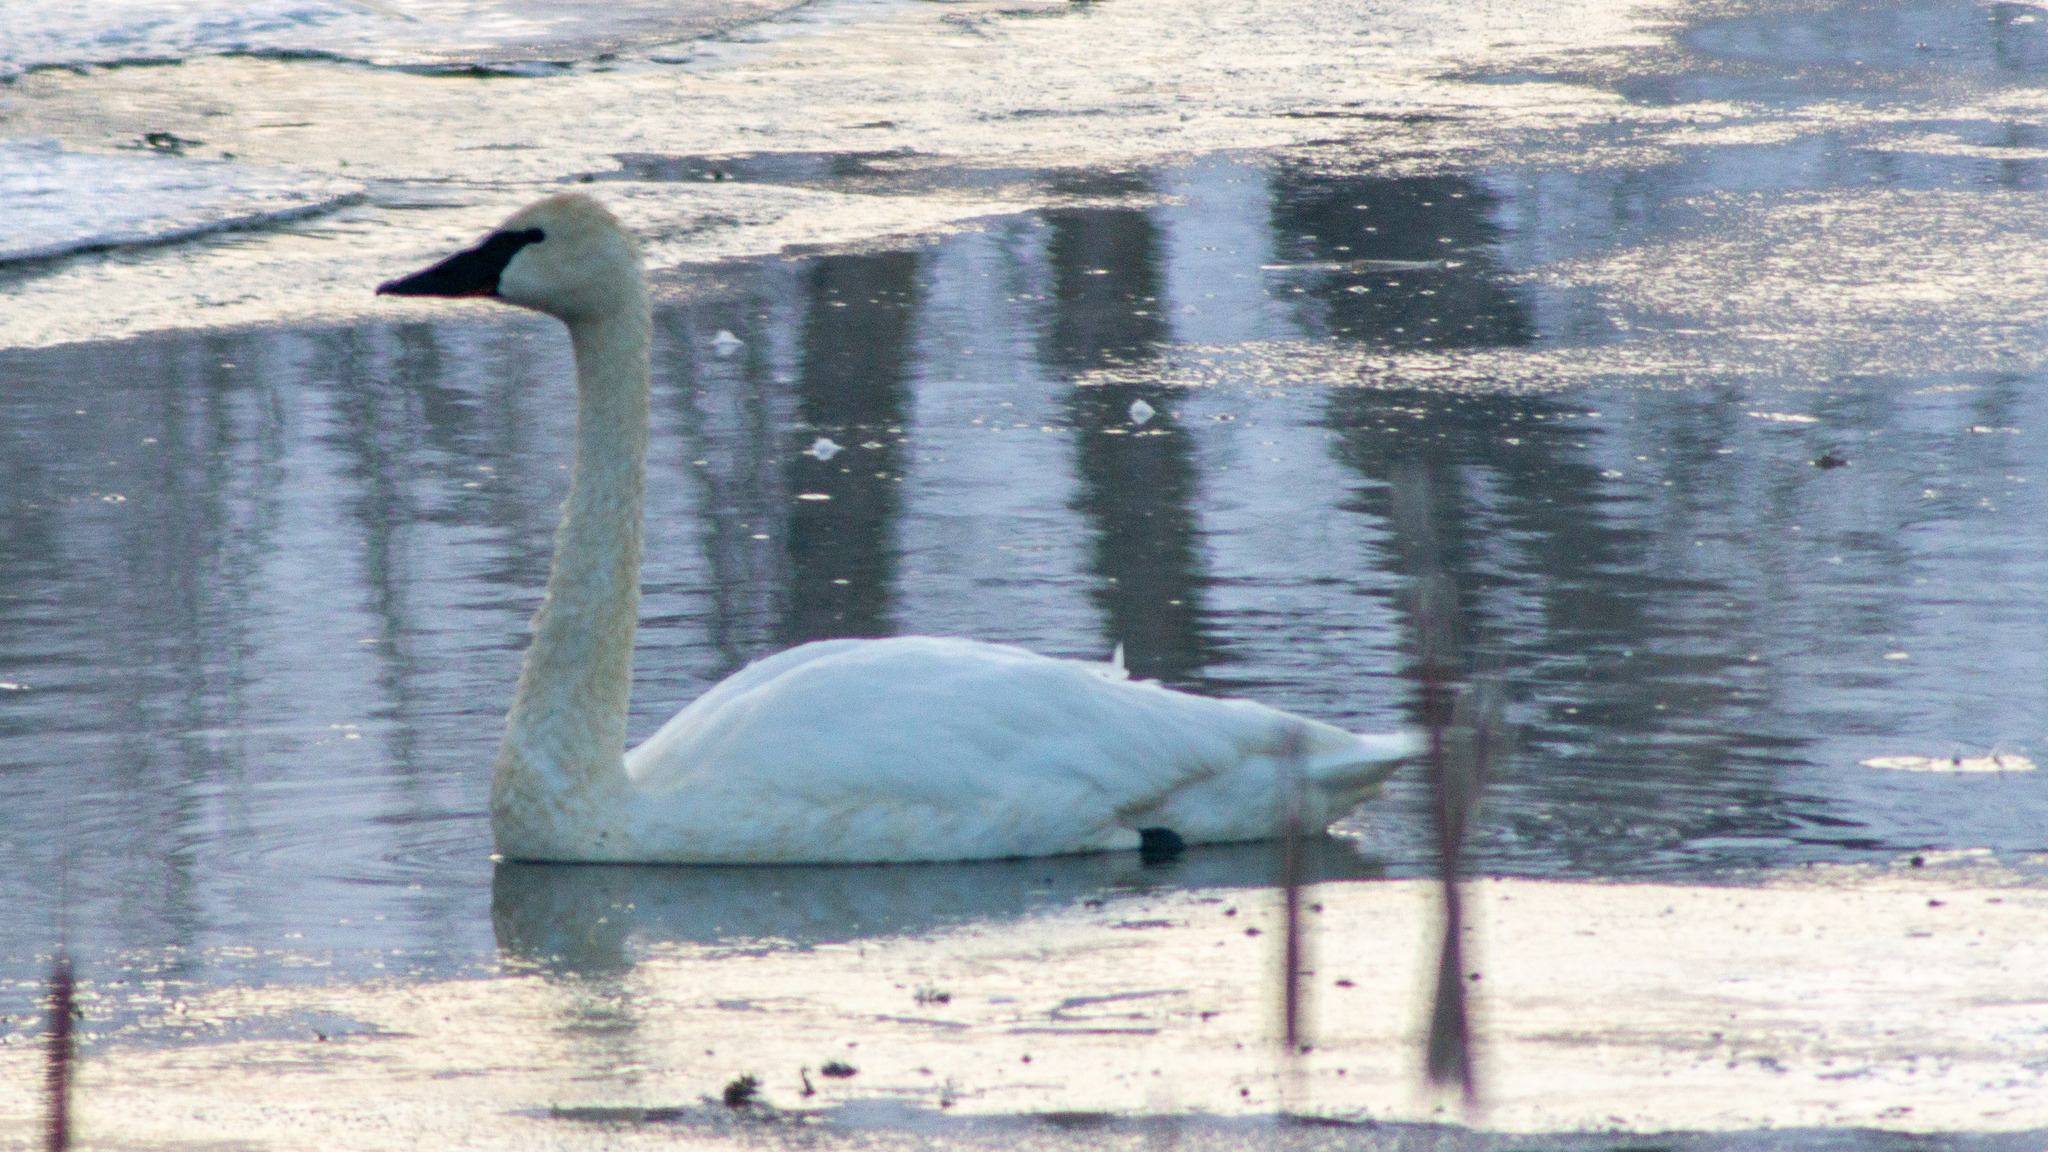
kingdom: Animalia
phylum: Chordata
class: Aves
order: Anseriformes
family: Anatidae
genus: Cygnus
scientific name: Cygnus buccinator
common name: Trumpeter swan
